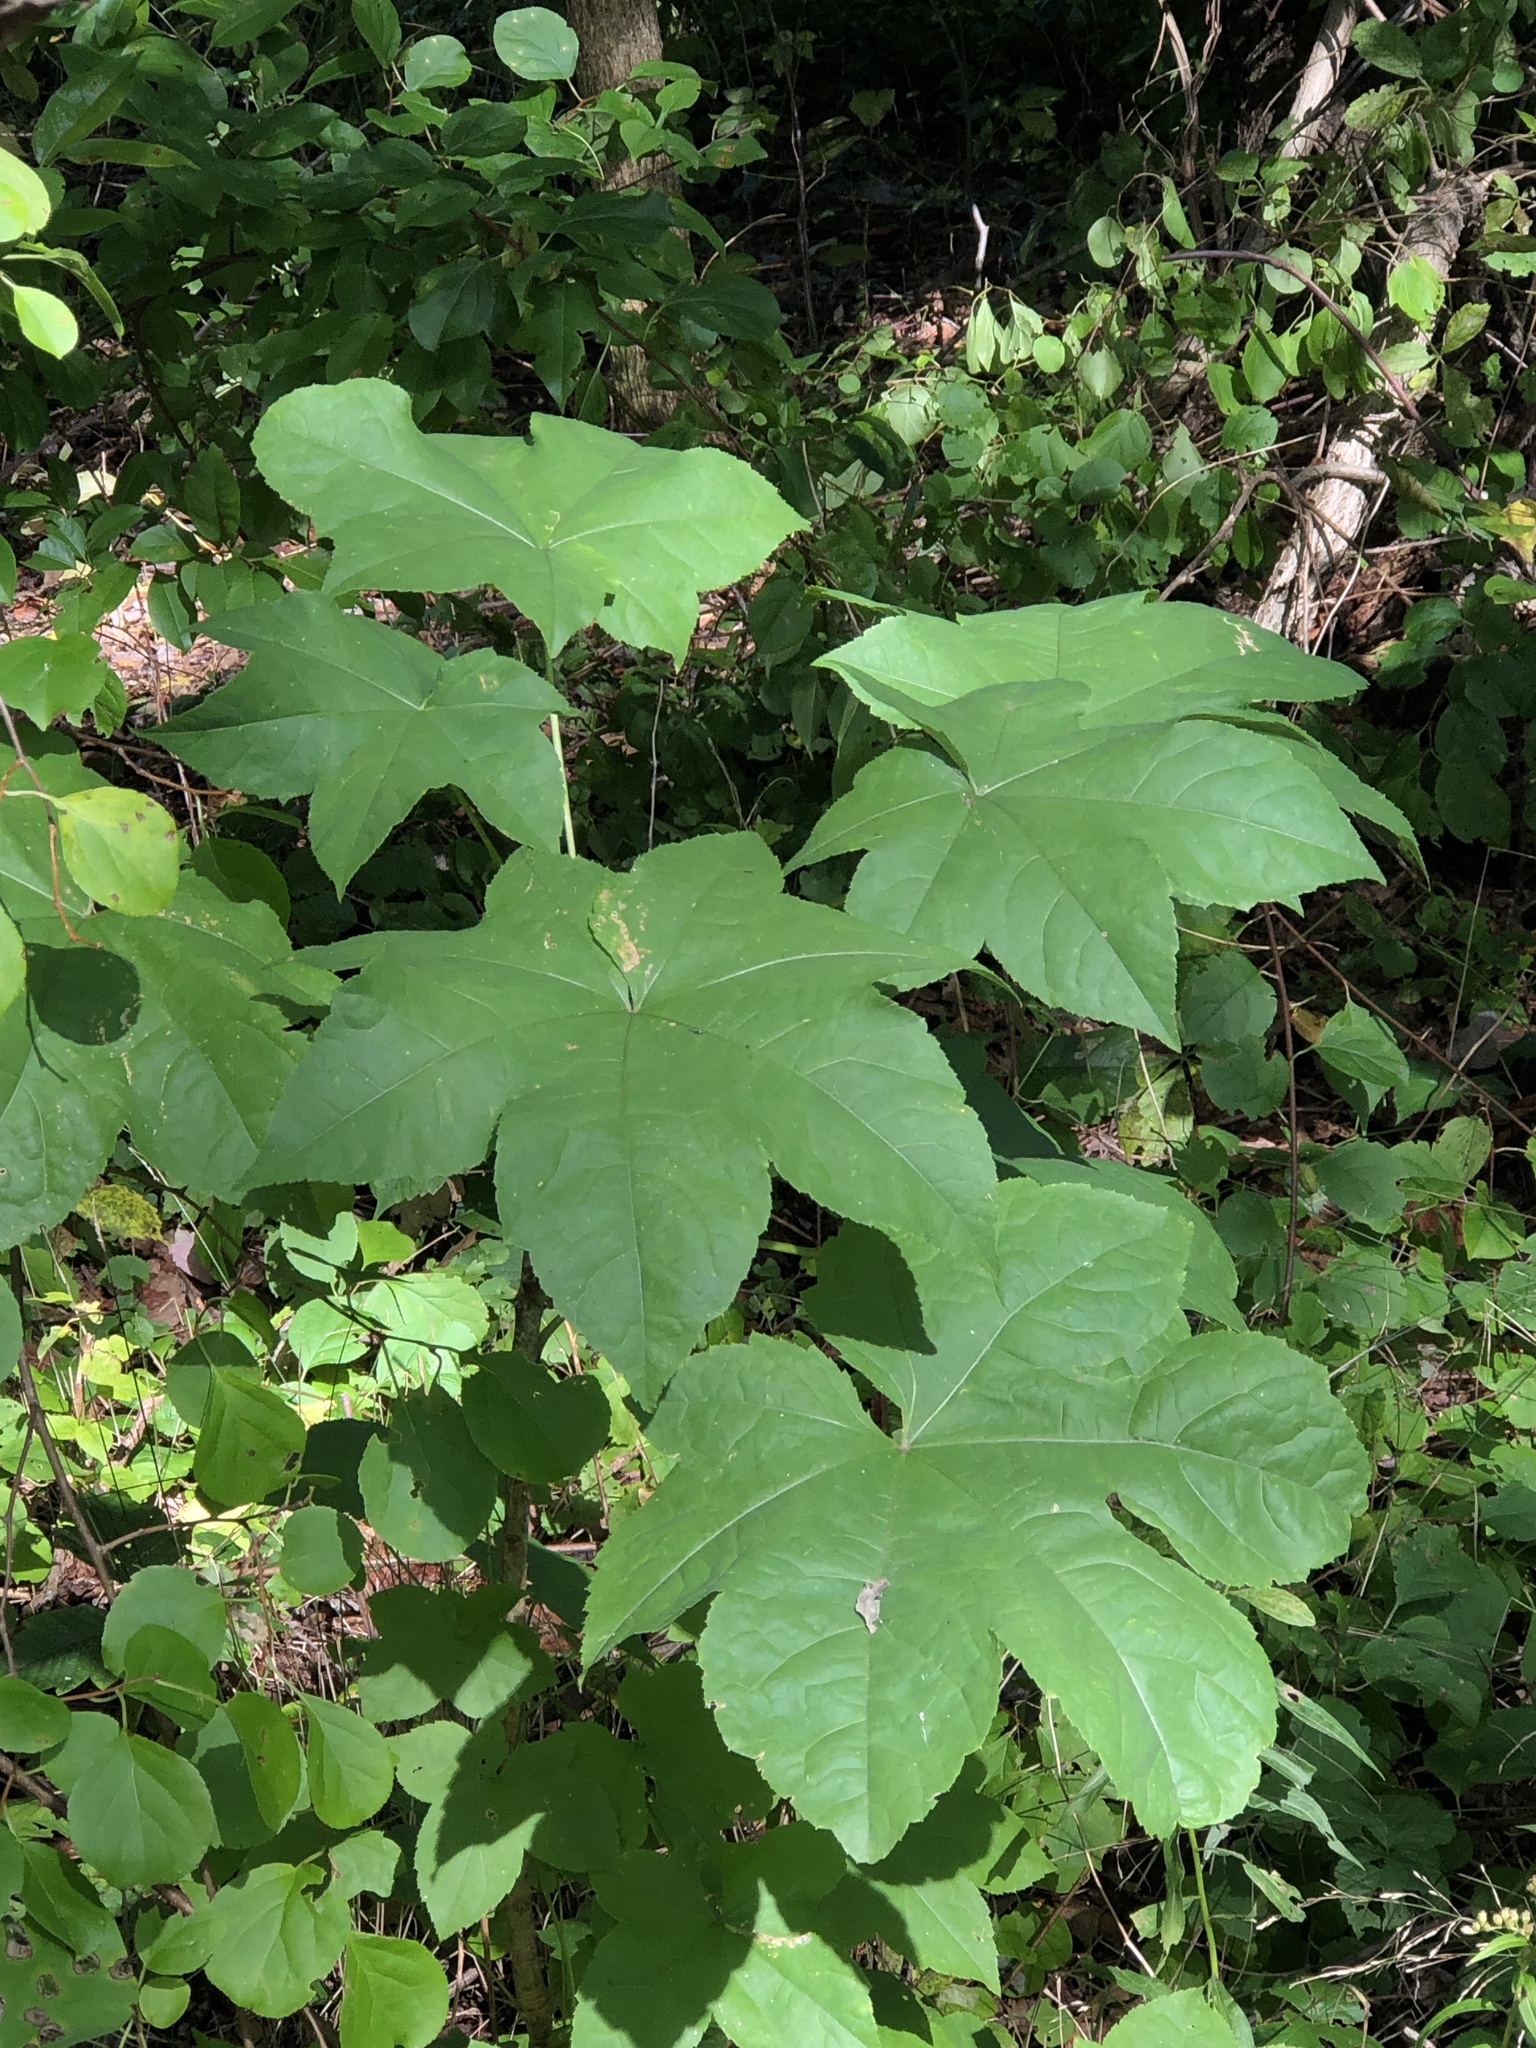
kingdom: Plantae
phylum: Tracheophyta
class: Magnoliopsida
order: Apiales
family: Araliaceae
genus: Kalopanax
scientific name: Kalopanax septemlobus
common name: Castor aralia
